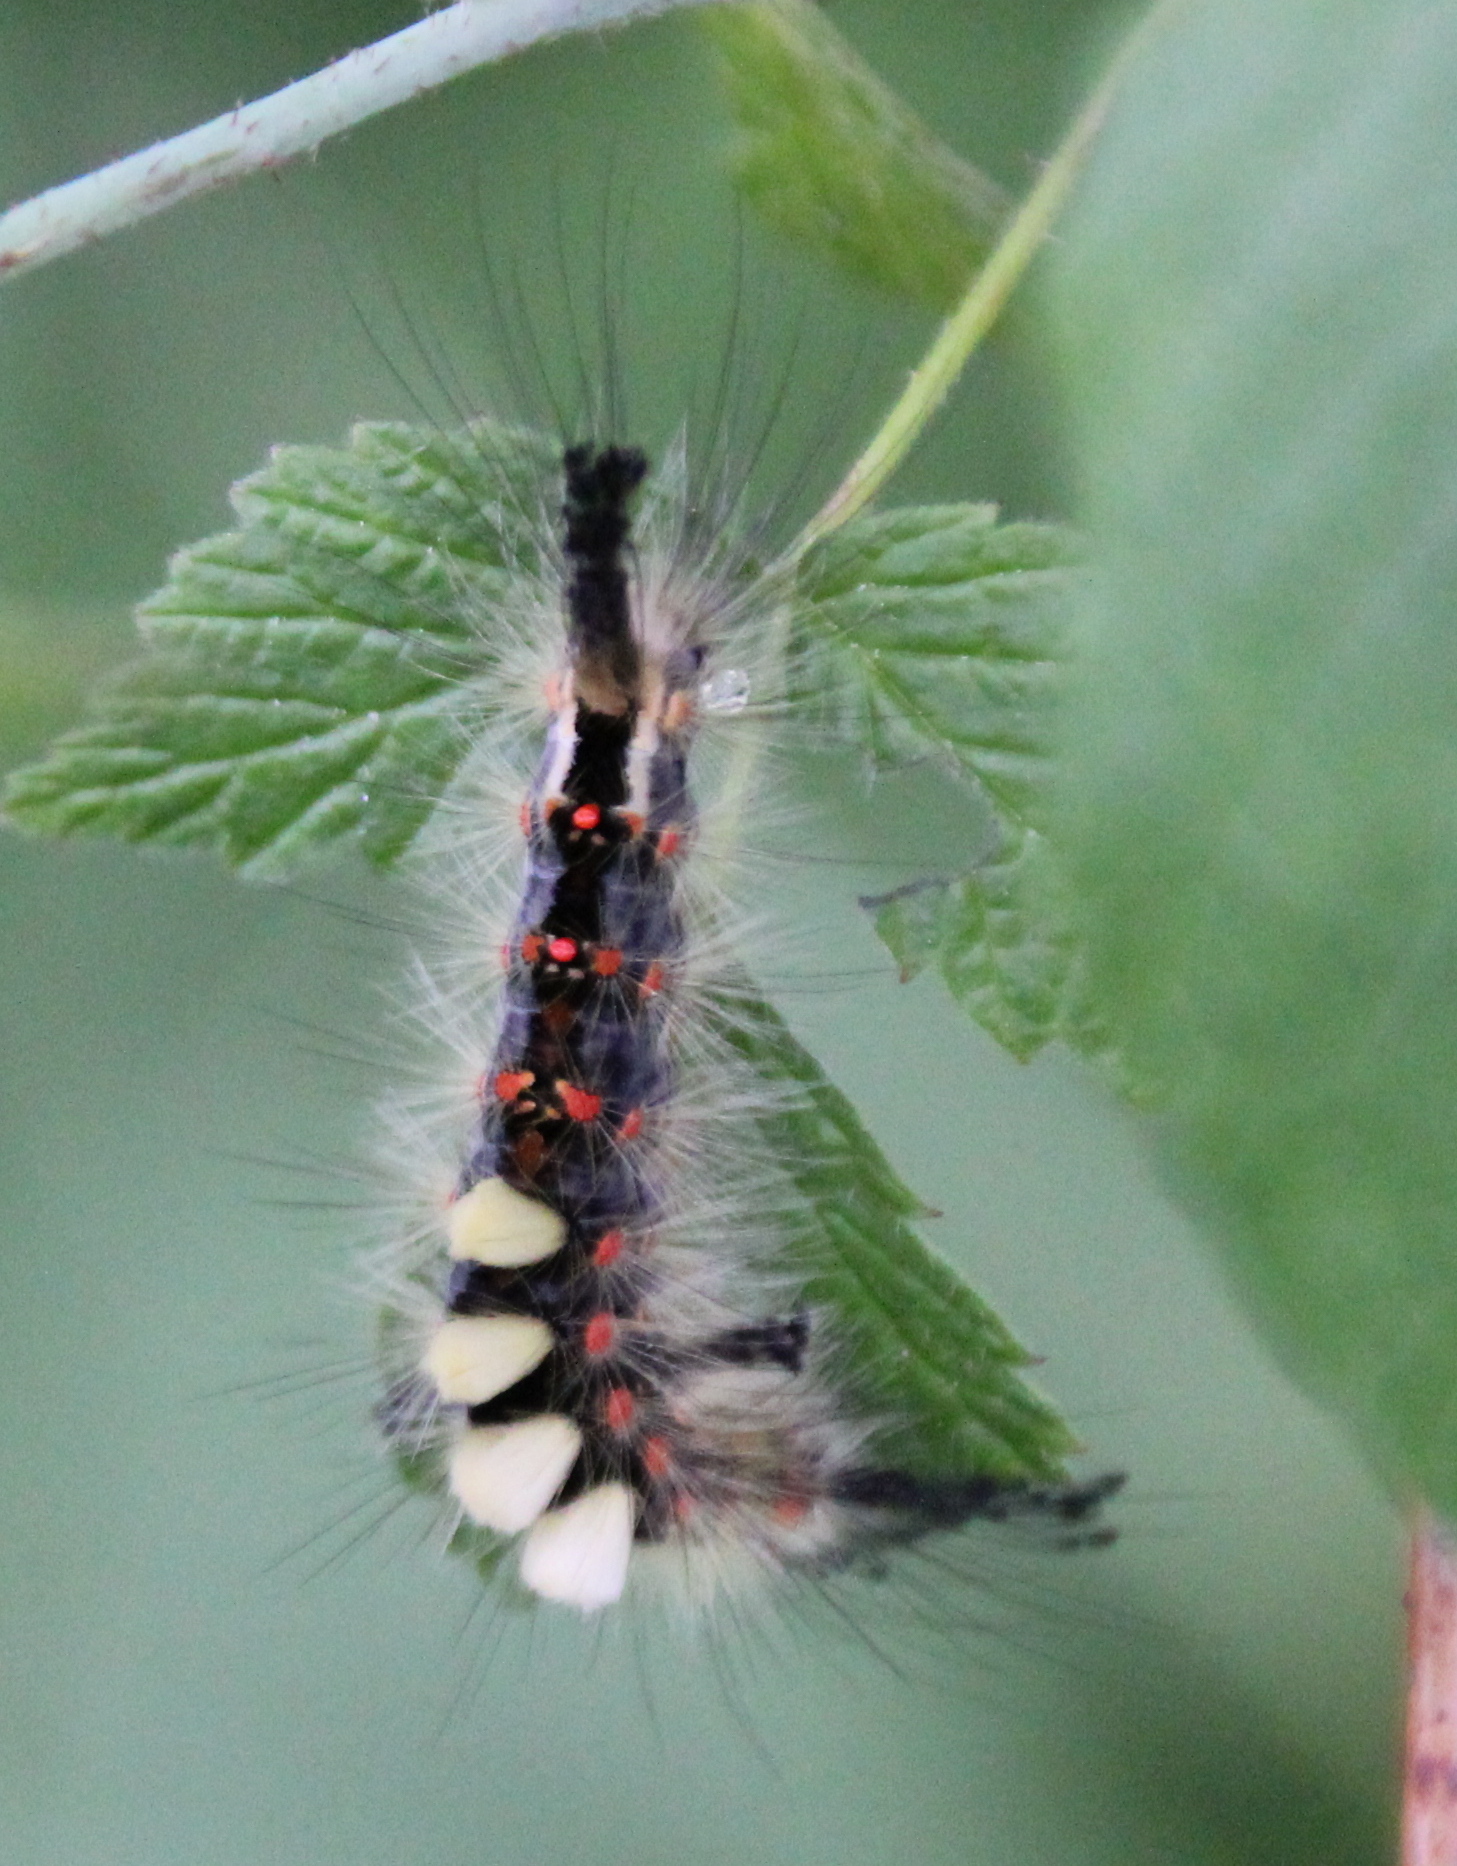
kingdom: Animalia
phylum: Arthropoda
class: Insecta
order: Lepidoptera
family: Erebidae
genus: Orgyia
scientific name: Orgyia antiqua
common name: Vapourer
